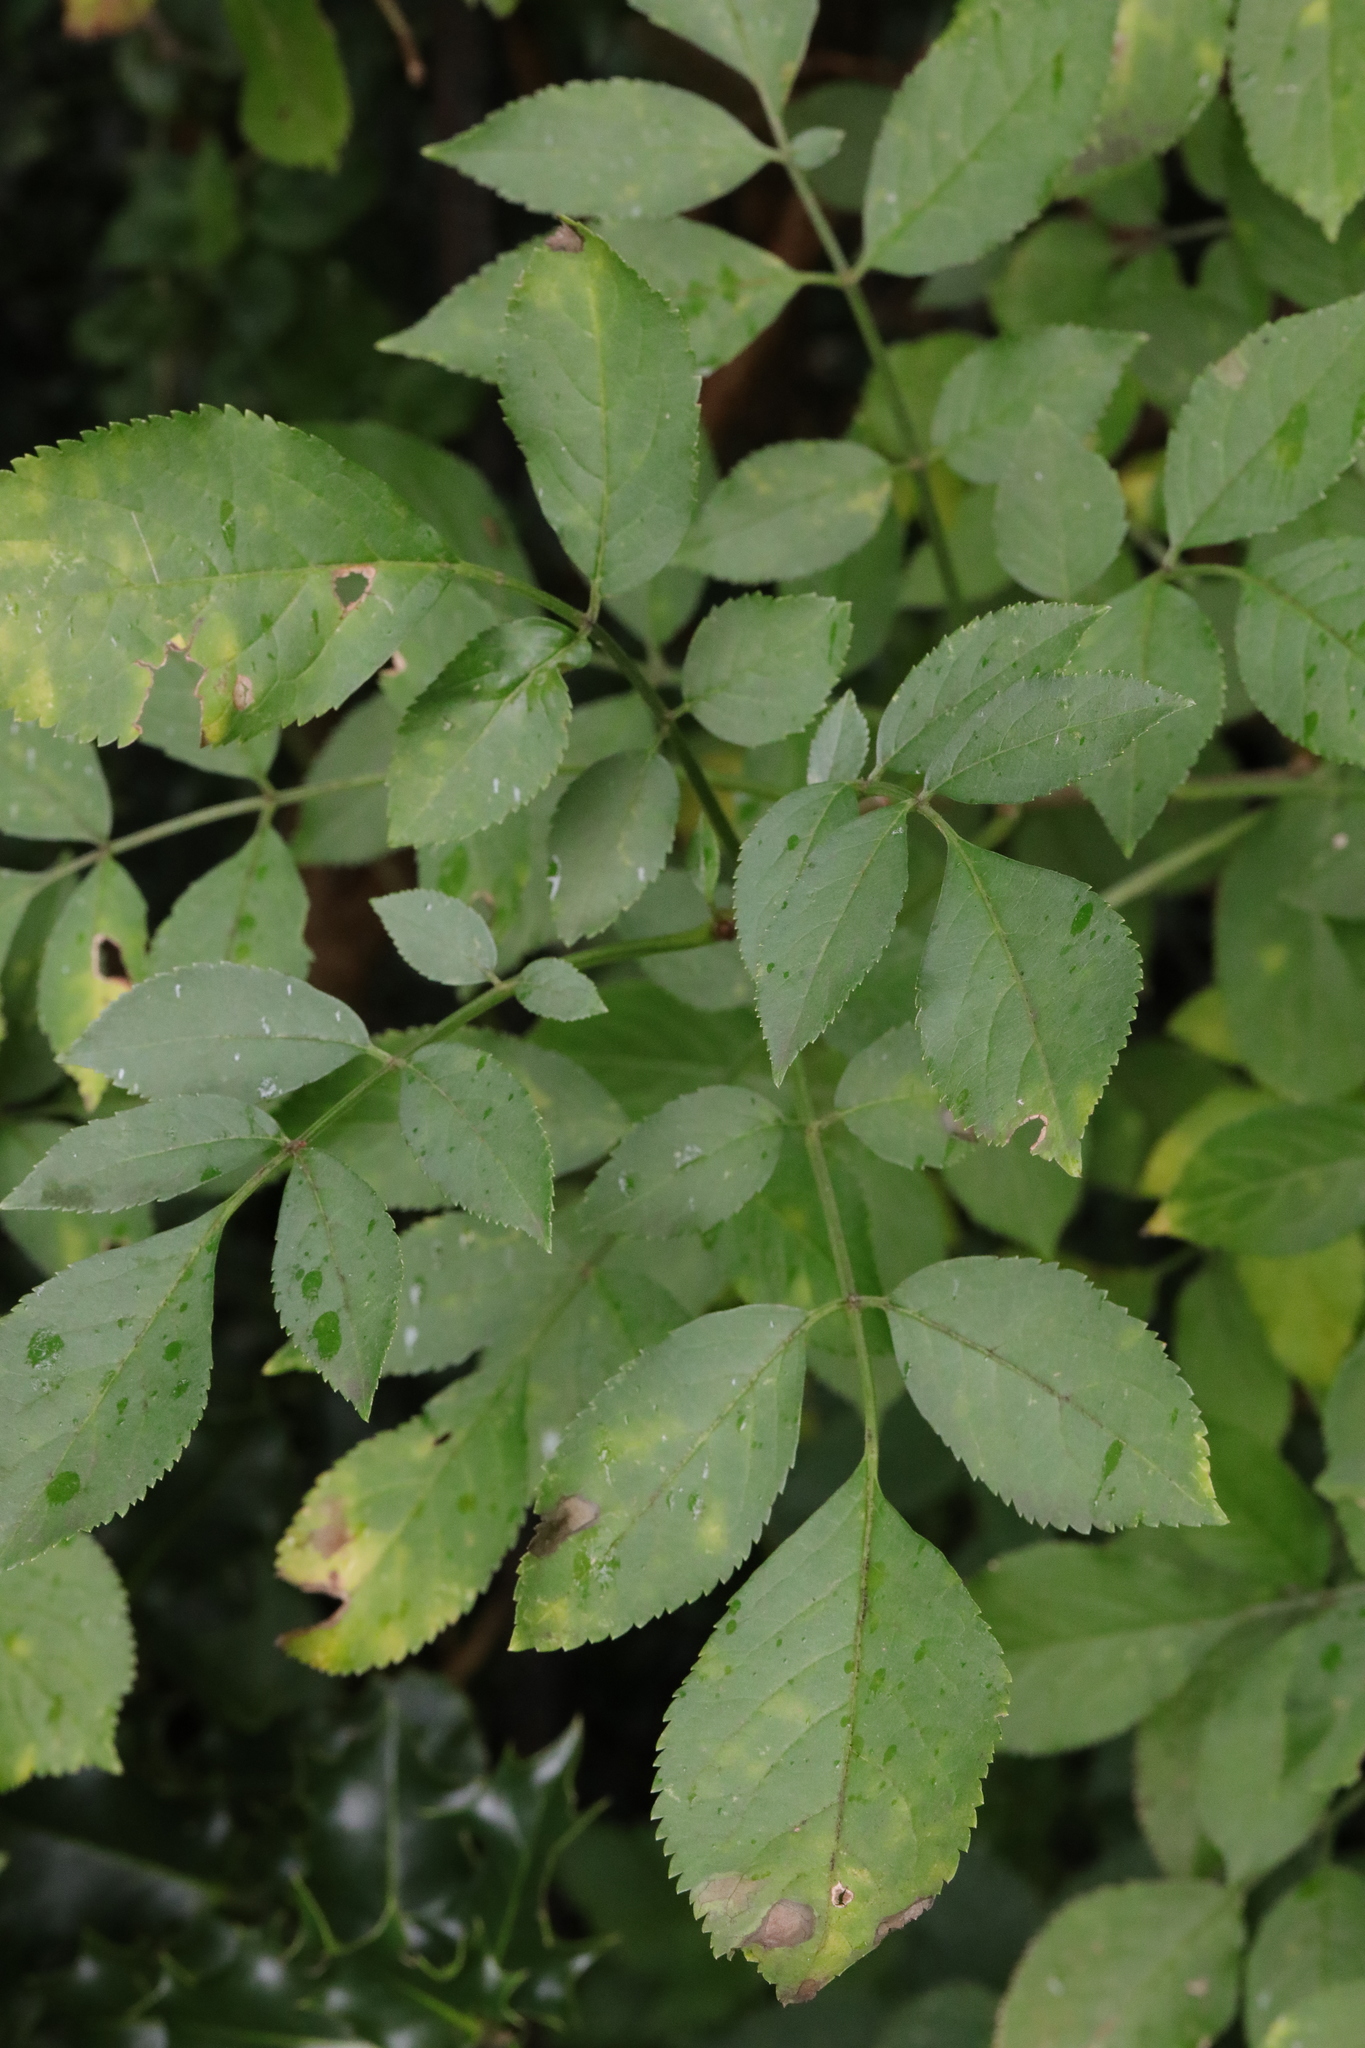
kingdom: Plantae
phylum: Tracheophyta
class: Magnoliopsida
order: Dipsacales
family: Viburnaceae
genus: Sambucus
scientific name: Sambucus nigra
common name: Elder
